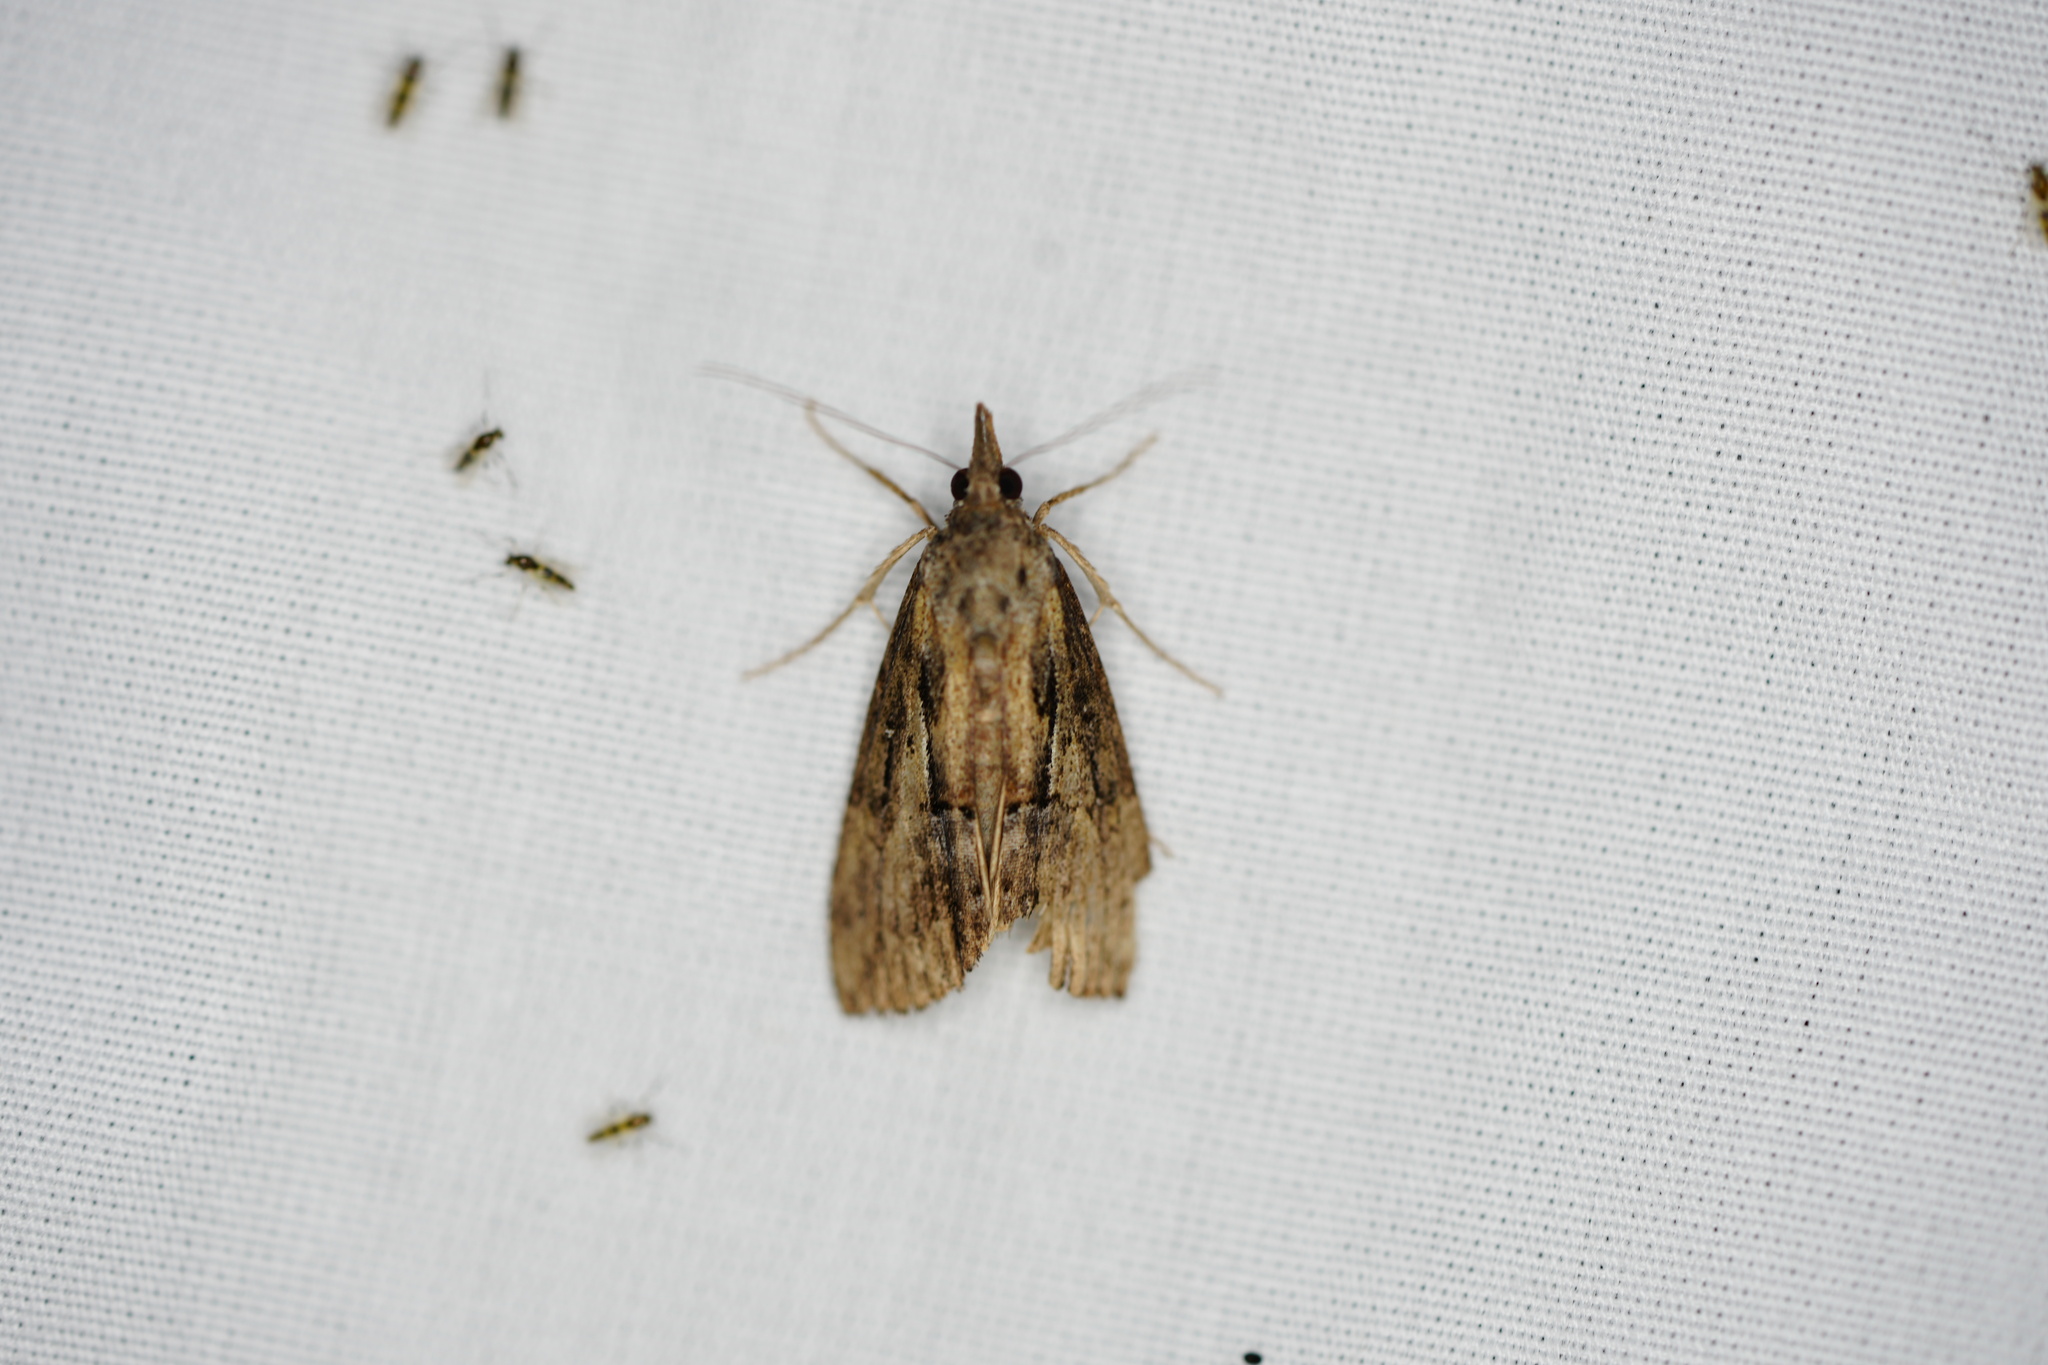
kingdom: Animalia
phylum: Arthropoda
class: Insecta
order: Lepidoptera
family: Erebidae
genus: Hypena
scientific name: Hypena scabra
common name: Green cloverworm
